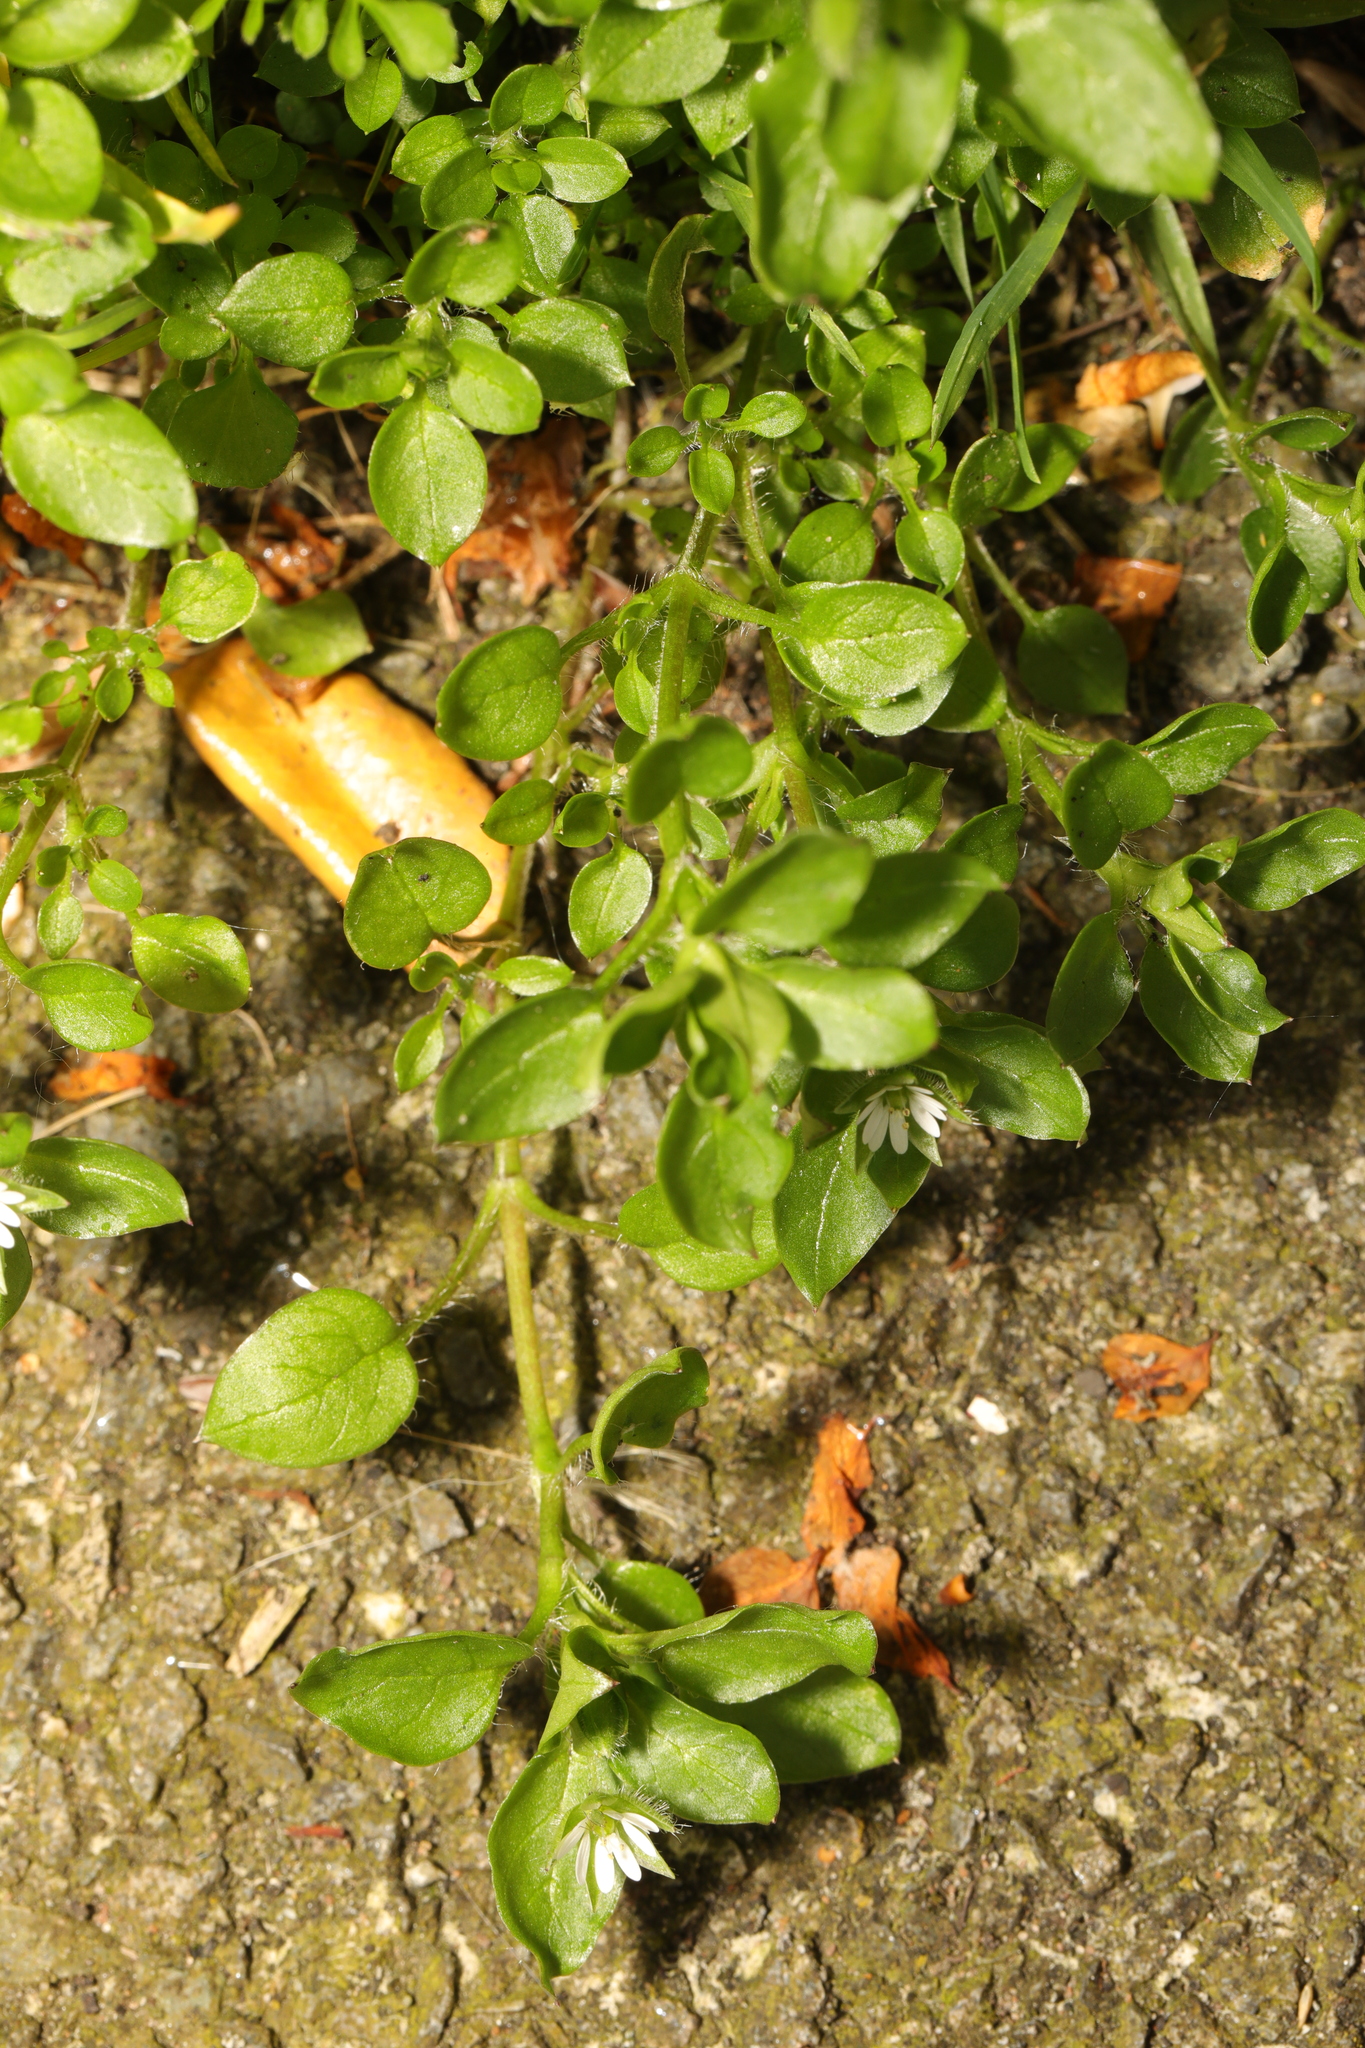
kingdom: Plantae
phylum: Tracheophyta
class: Magnoliopsida
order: Caryophyllales
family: Caryophyllaceae
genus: Stellaria
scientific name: Stellaria media
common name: Common chickweed
